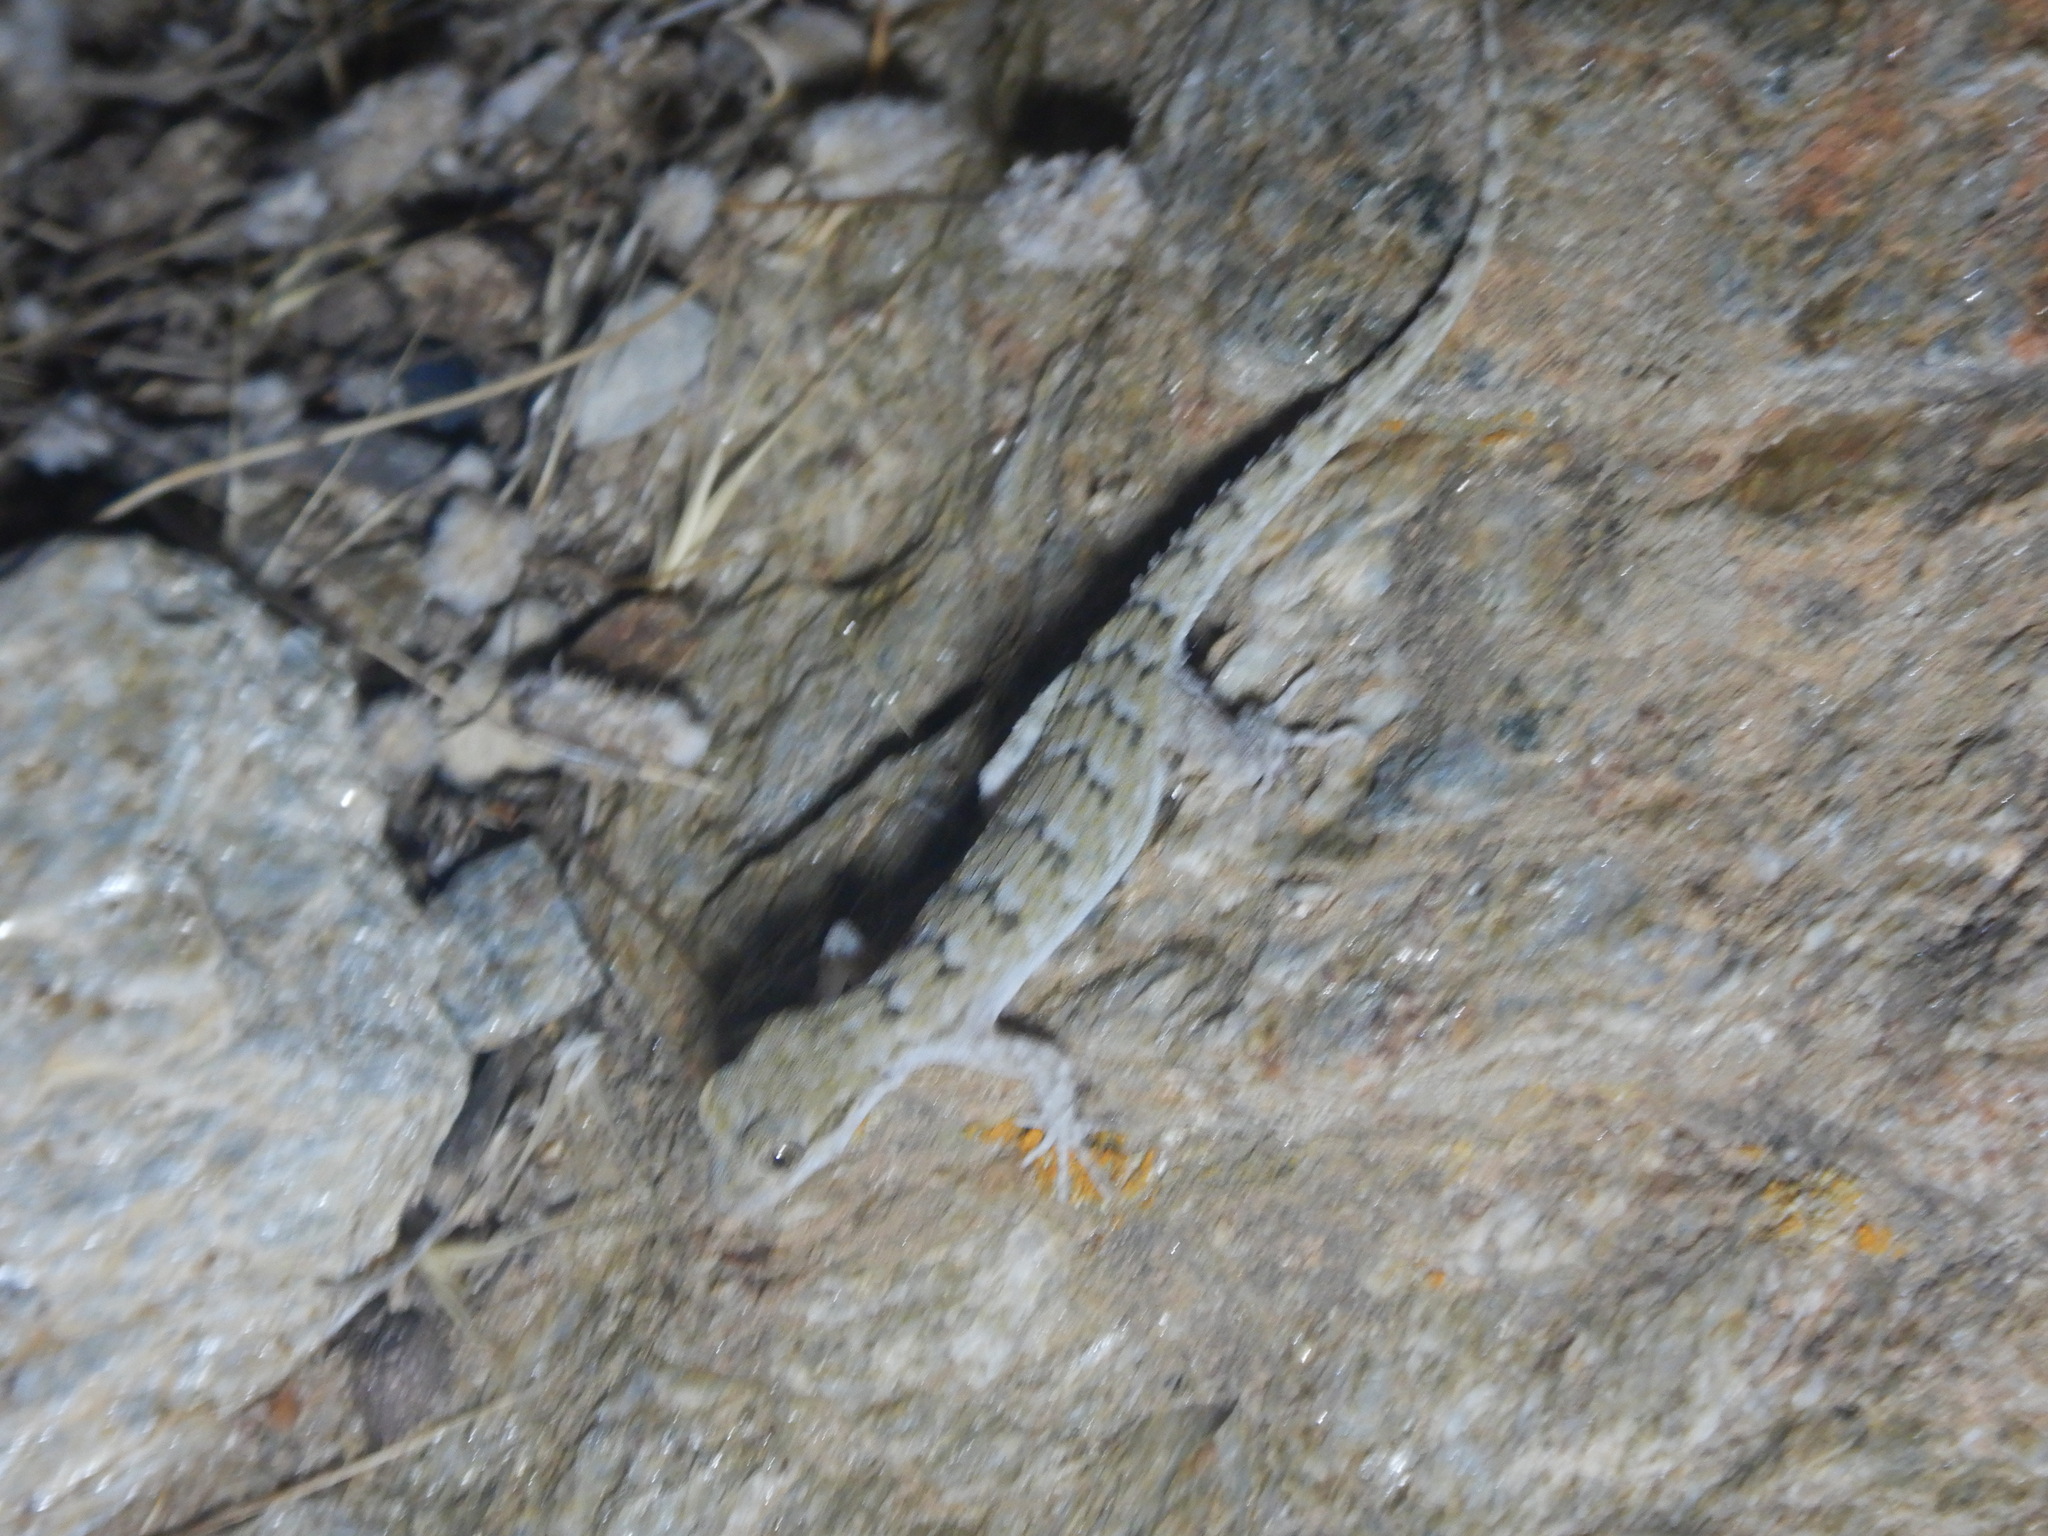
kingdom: Animalia
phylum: Chordata
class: Squamata
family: Gekkonidae
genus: Mediodactylus
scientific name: Mediodactylus kotschyi
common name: Kotschy's gecko
